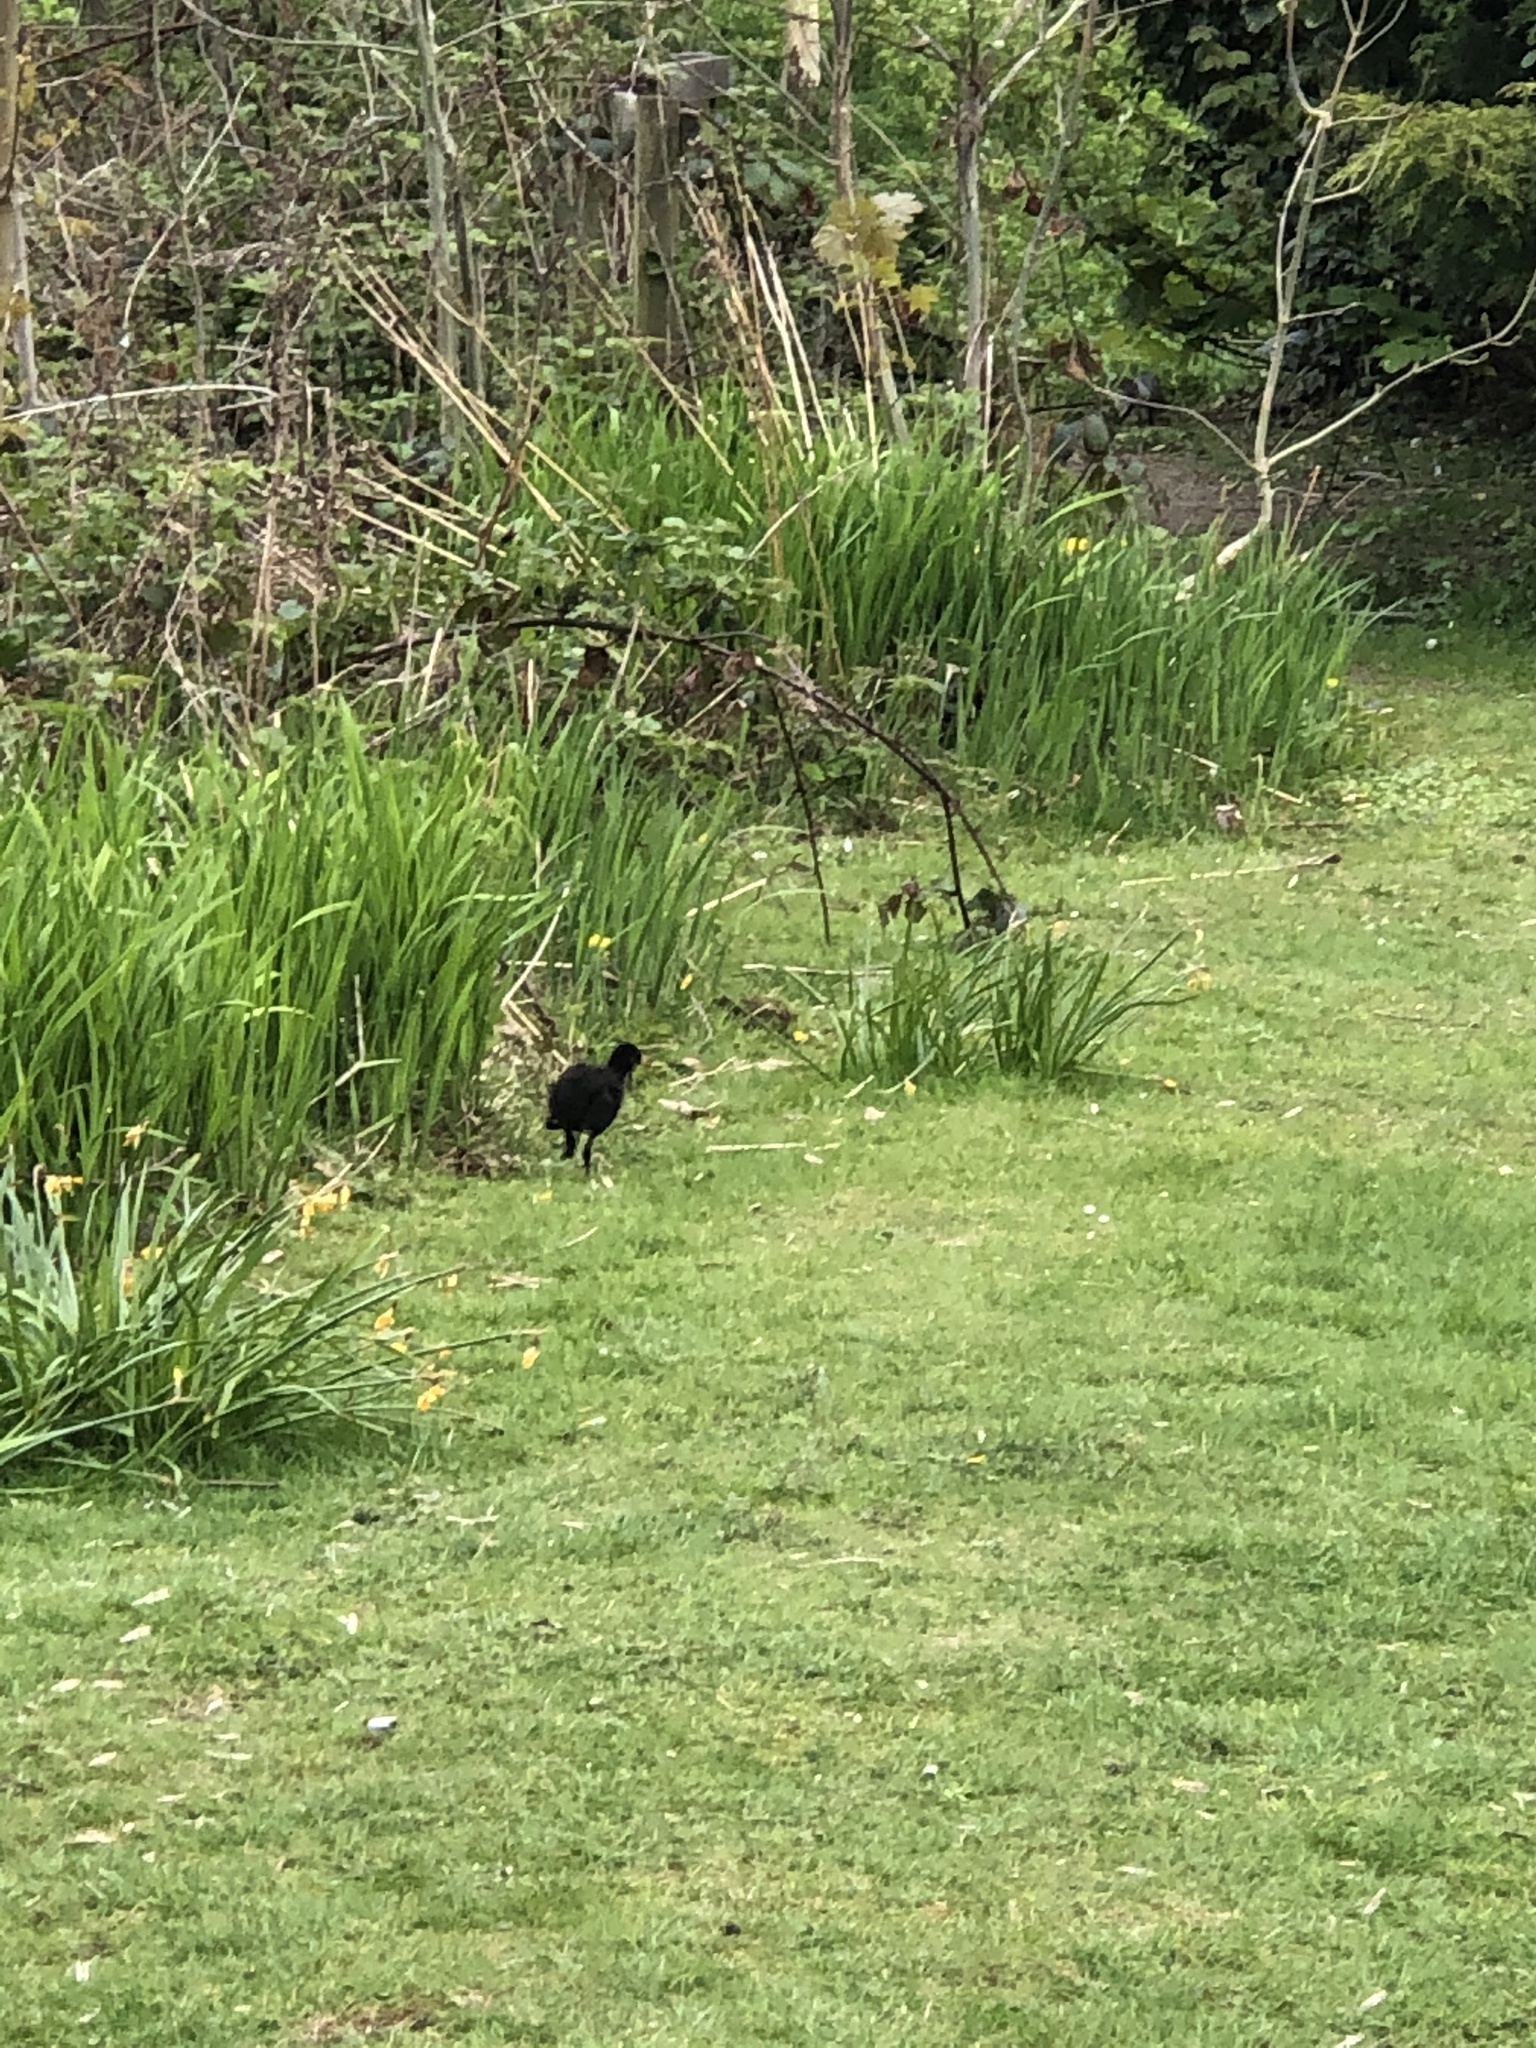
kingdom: Animalia
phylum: Chordata
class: Aves
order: Gruiformes
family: Rallidae
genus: Gallinula
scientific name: Gallinula chloropus
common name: Common moorhen
